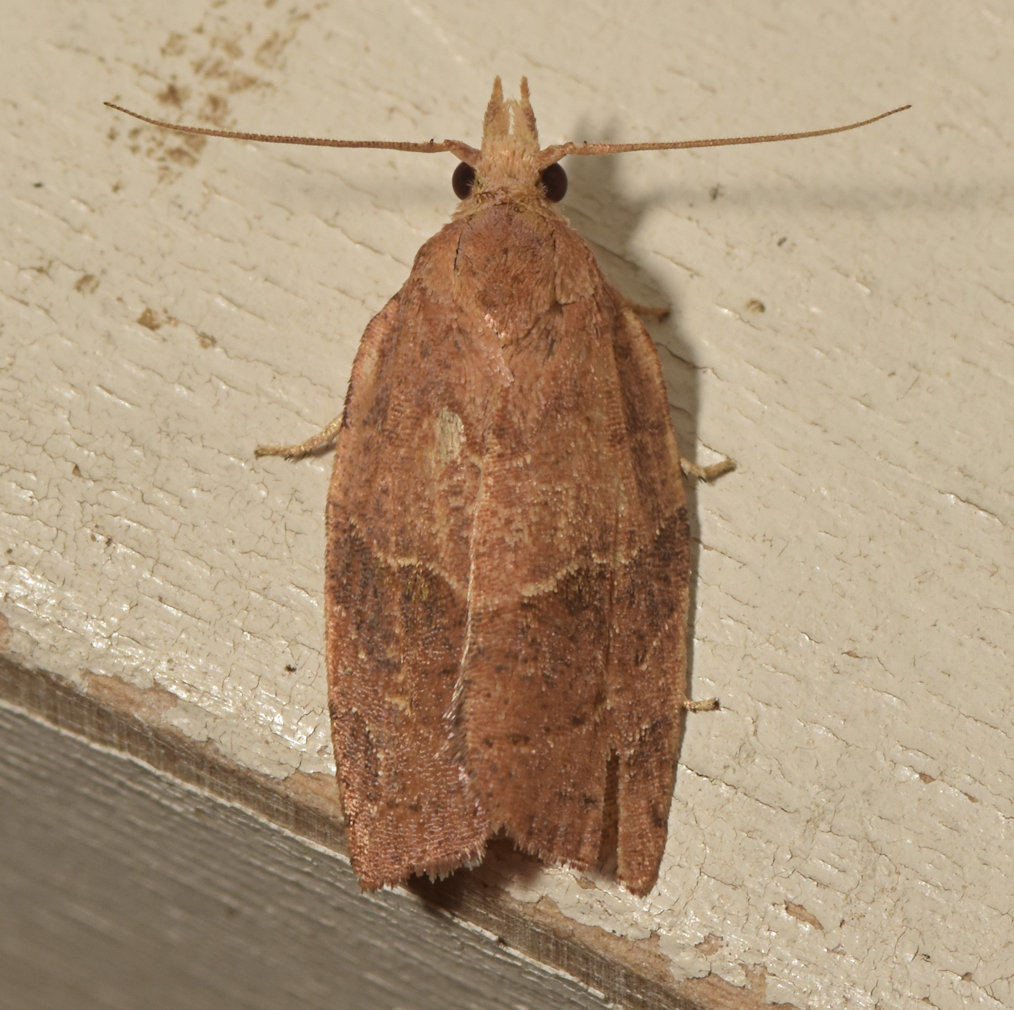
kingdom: Animalia
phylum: Arthropoda
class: Insecta
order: Lepidoptera
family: Tortricidae
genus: Pandemis
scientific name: Pandemis limitata
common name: Three-lined leafroller moth
